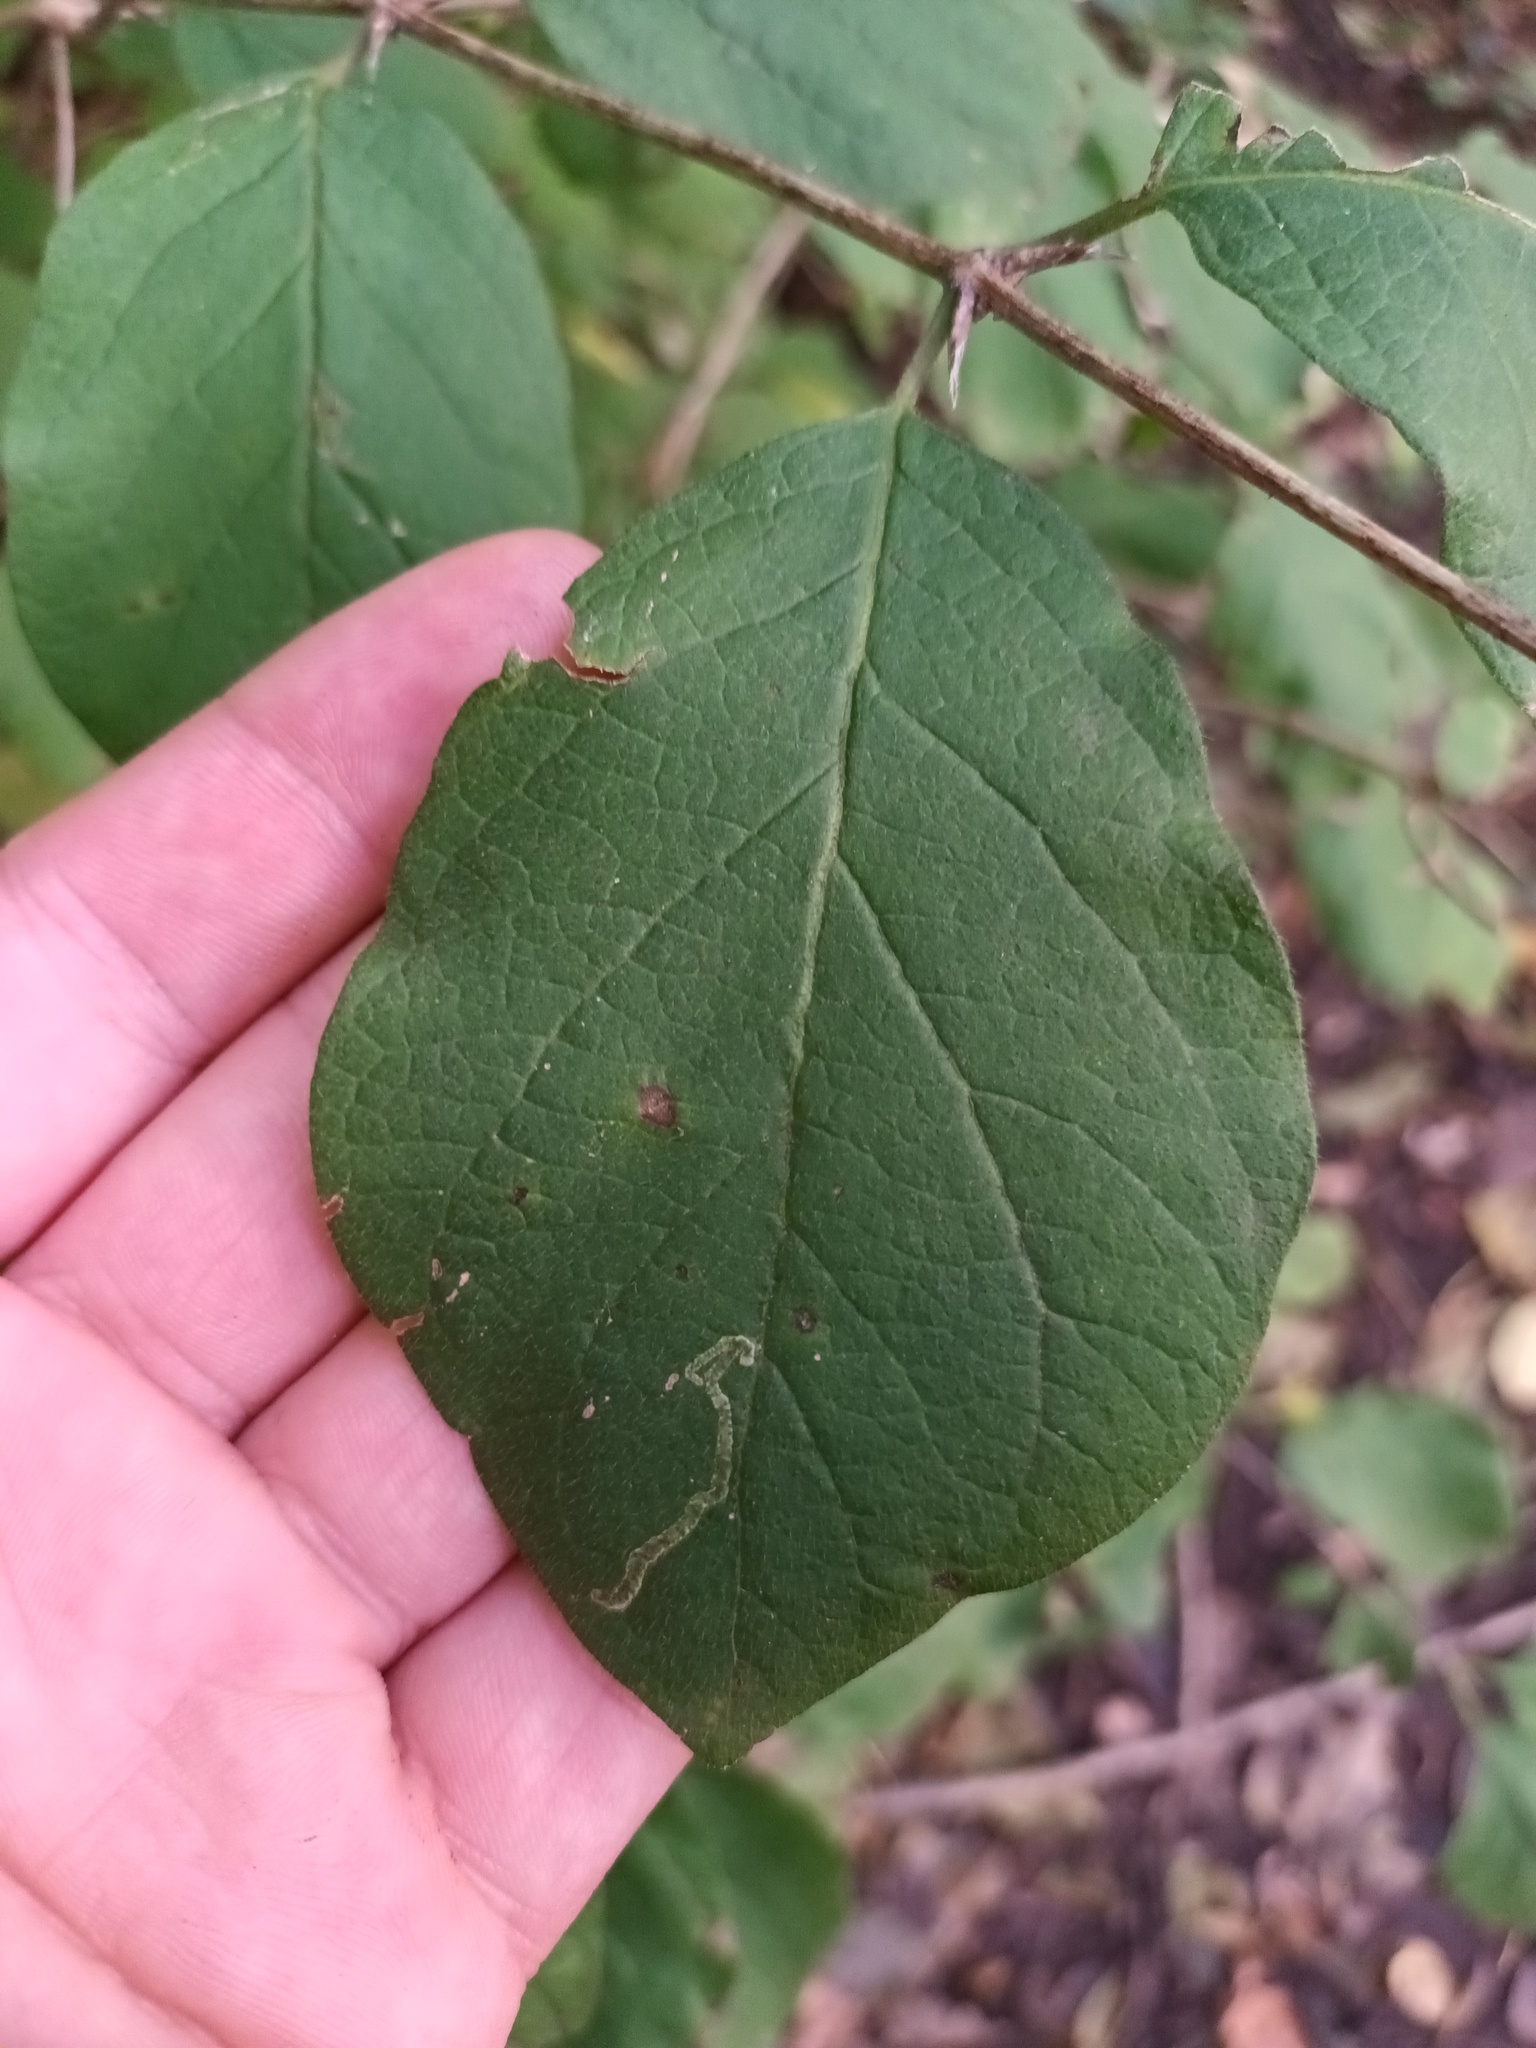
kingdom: Animalia
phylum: Arthropoda
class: Insecta
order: Diptera
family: Agromyzidae
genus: Aulagromyza
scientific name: Aulagromyza luteoscutellata
